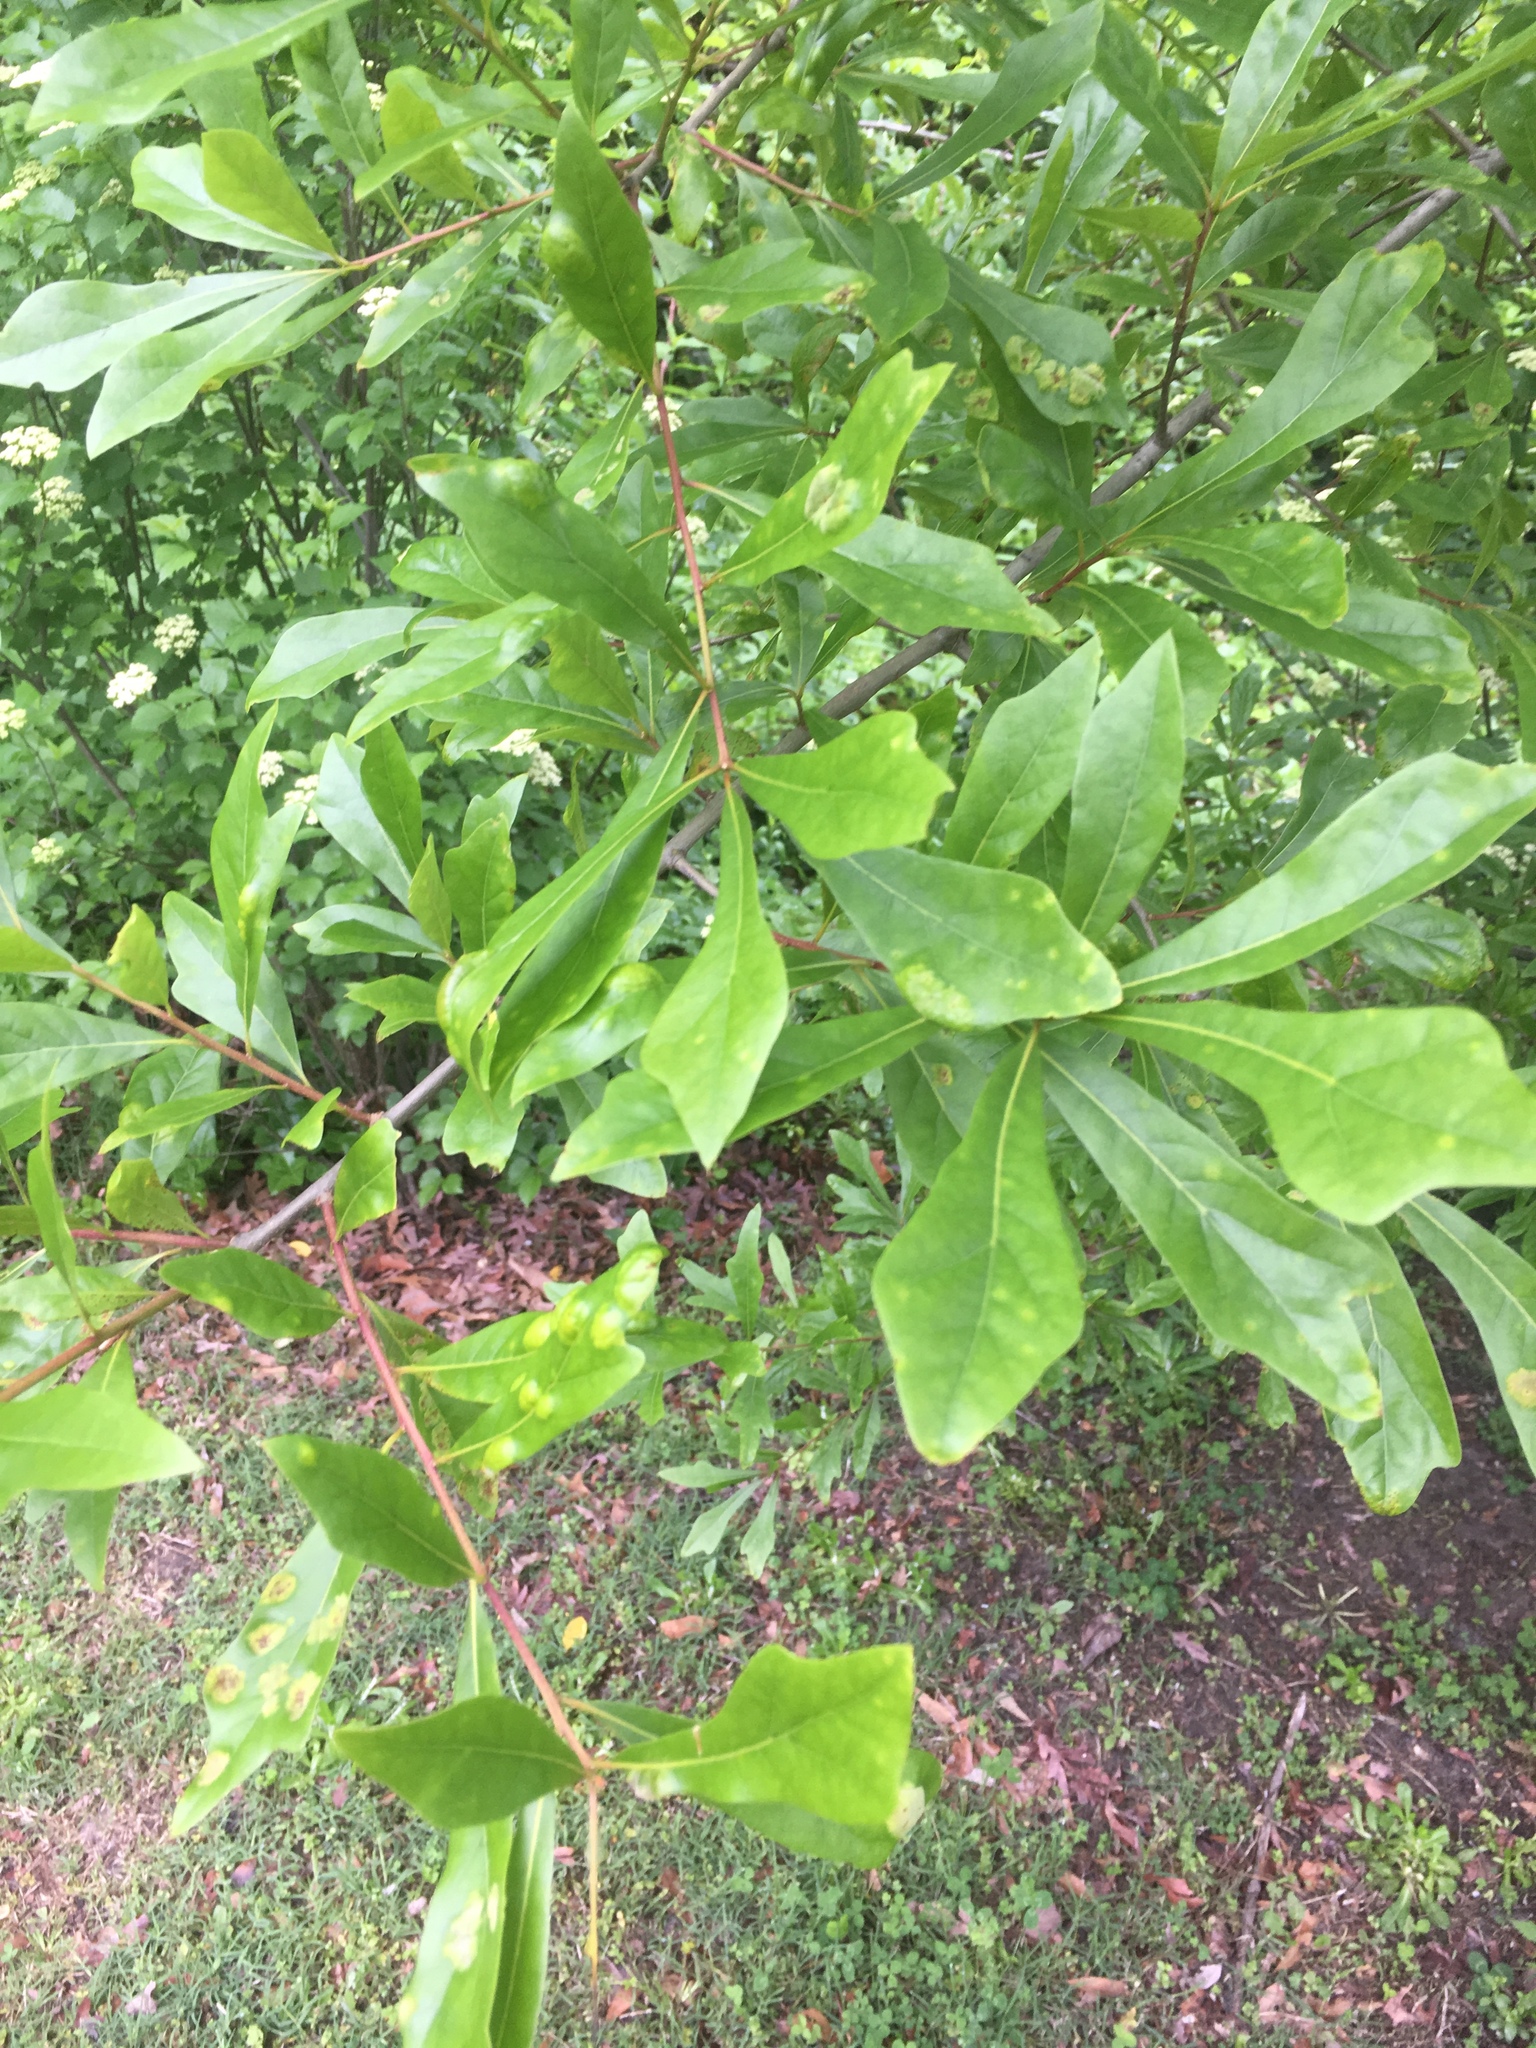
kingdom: Plantae
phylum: Tracheophyta
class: Magnoliopsida
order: Fagales
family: Fagaceae
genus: Quercus
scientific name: Quercus nigra
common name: Water oak
